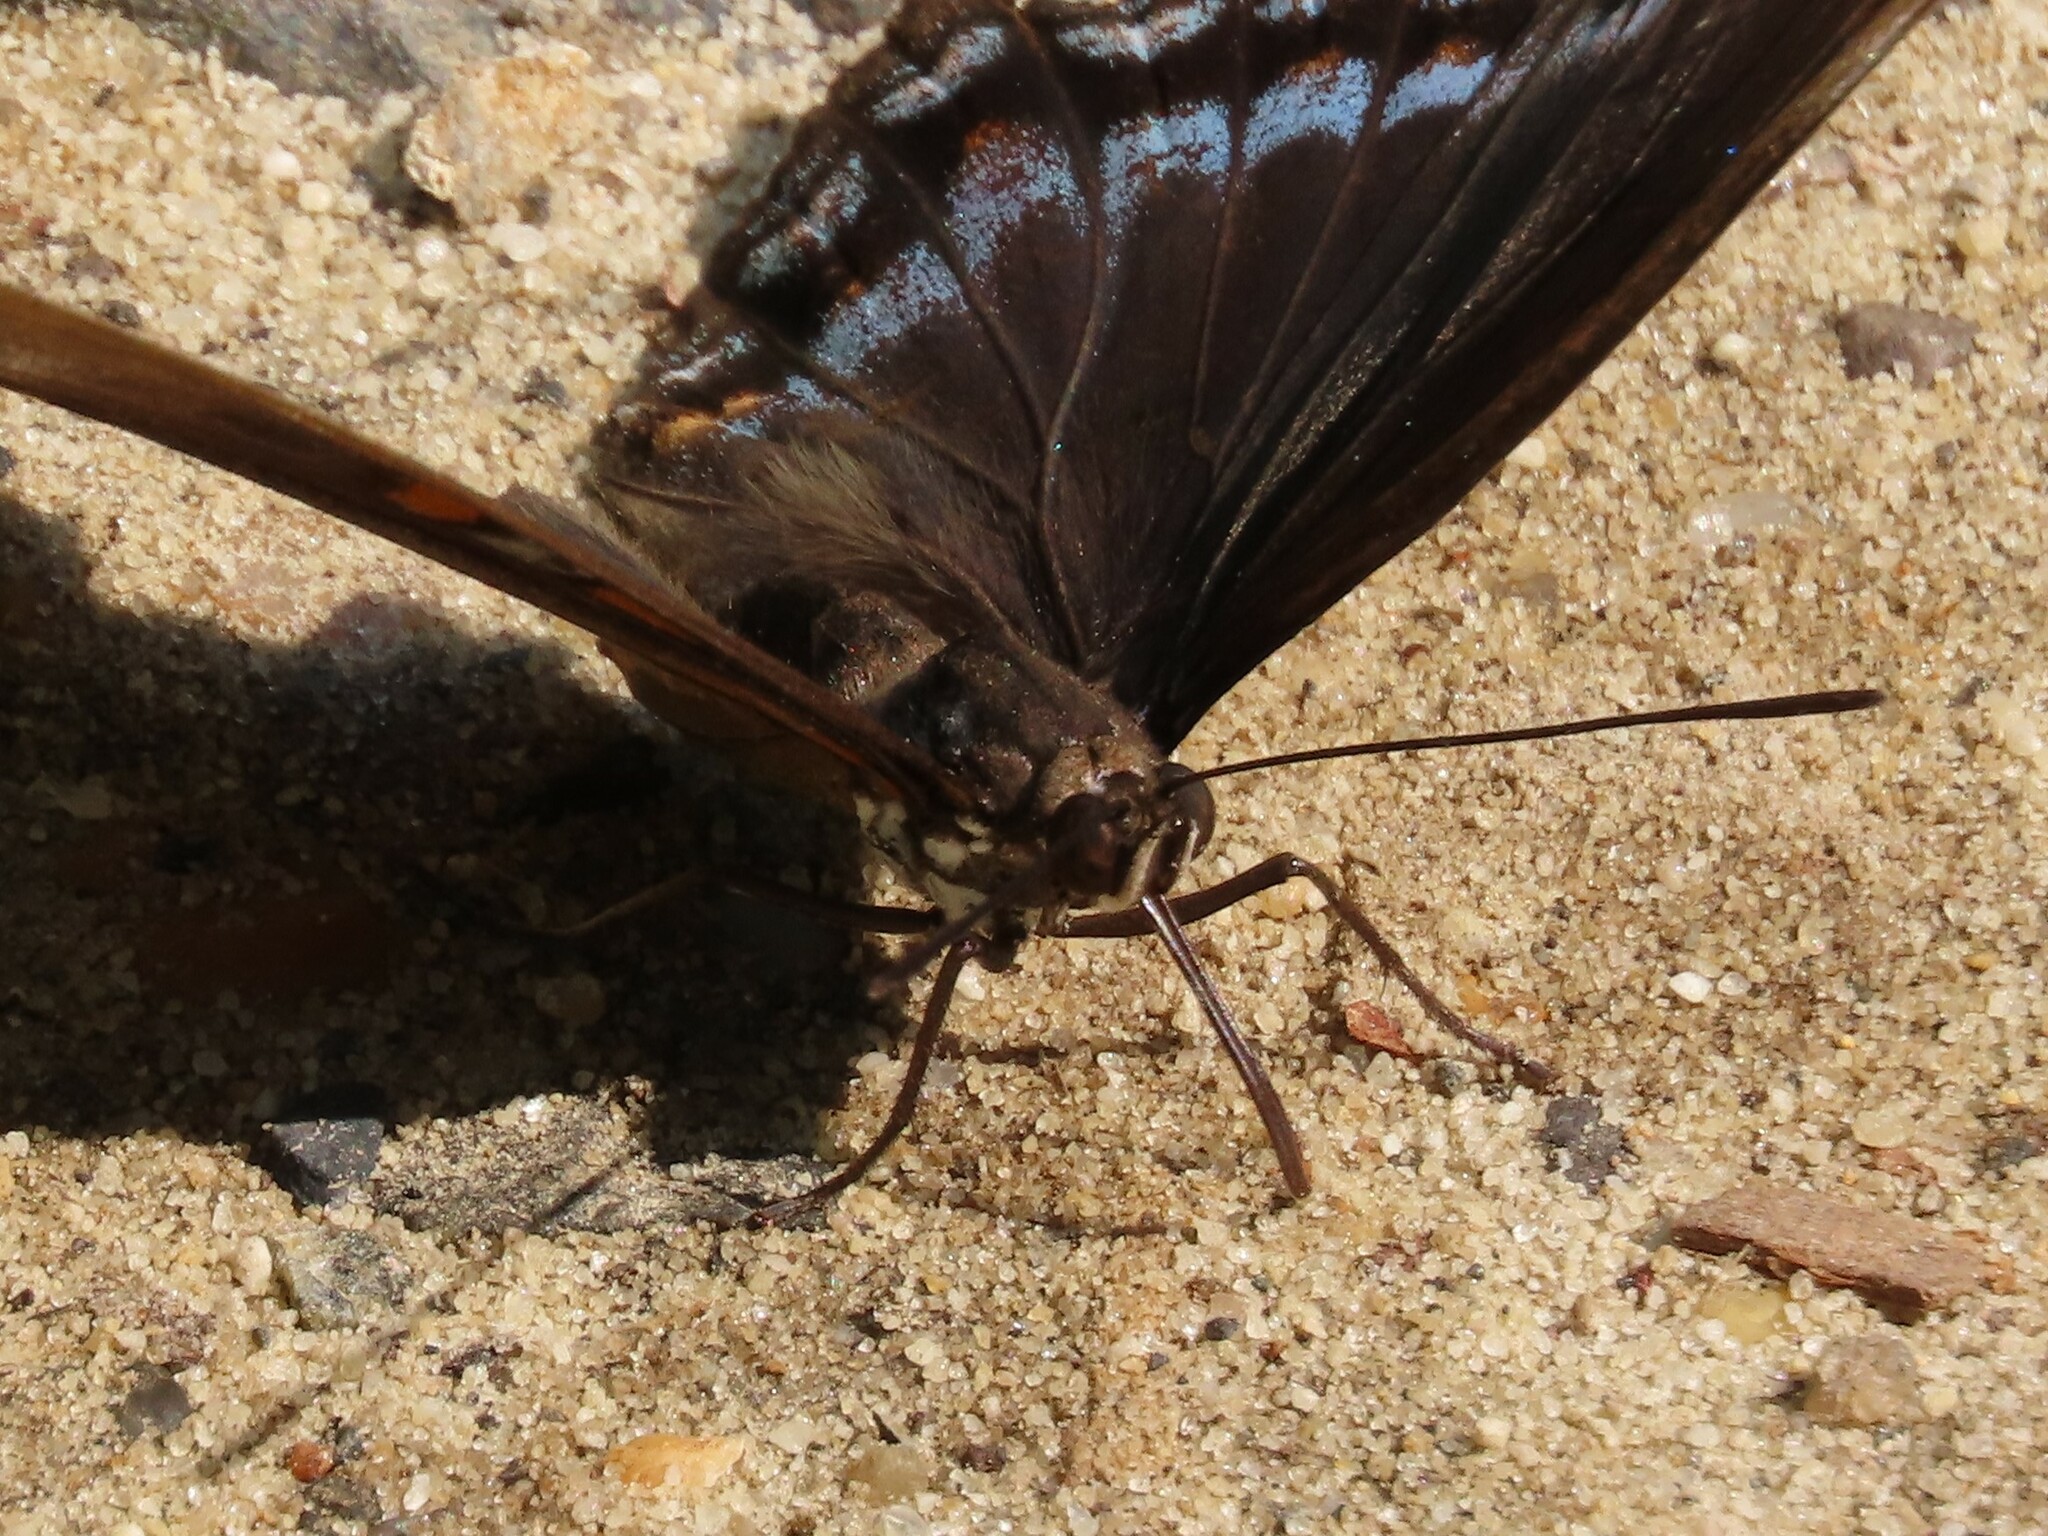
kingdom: Animalia
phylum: Arthropoda
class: Insecta
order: Lepidoptera
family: Nymphalidae
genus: Limenitis
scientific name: Limenitis astyanax
